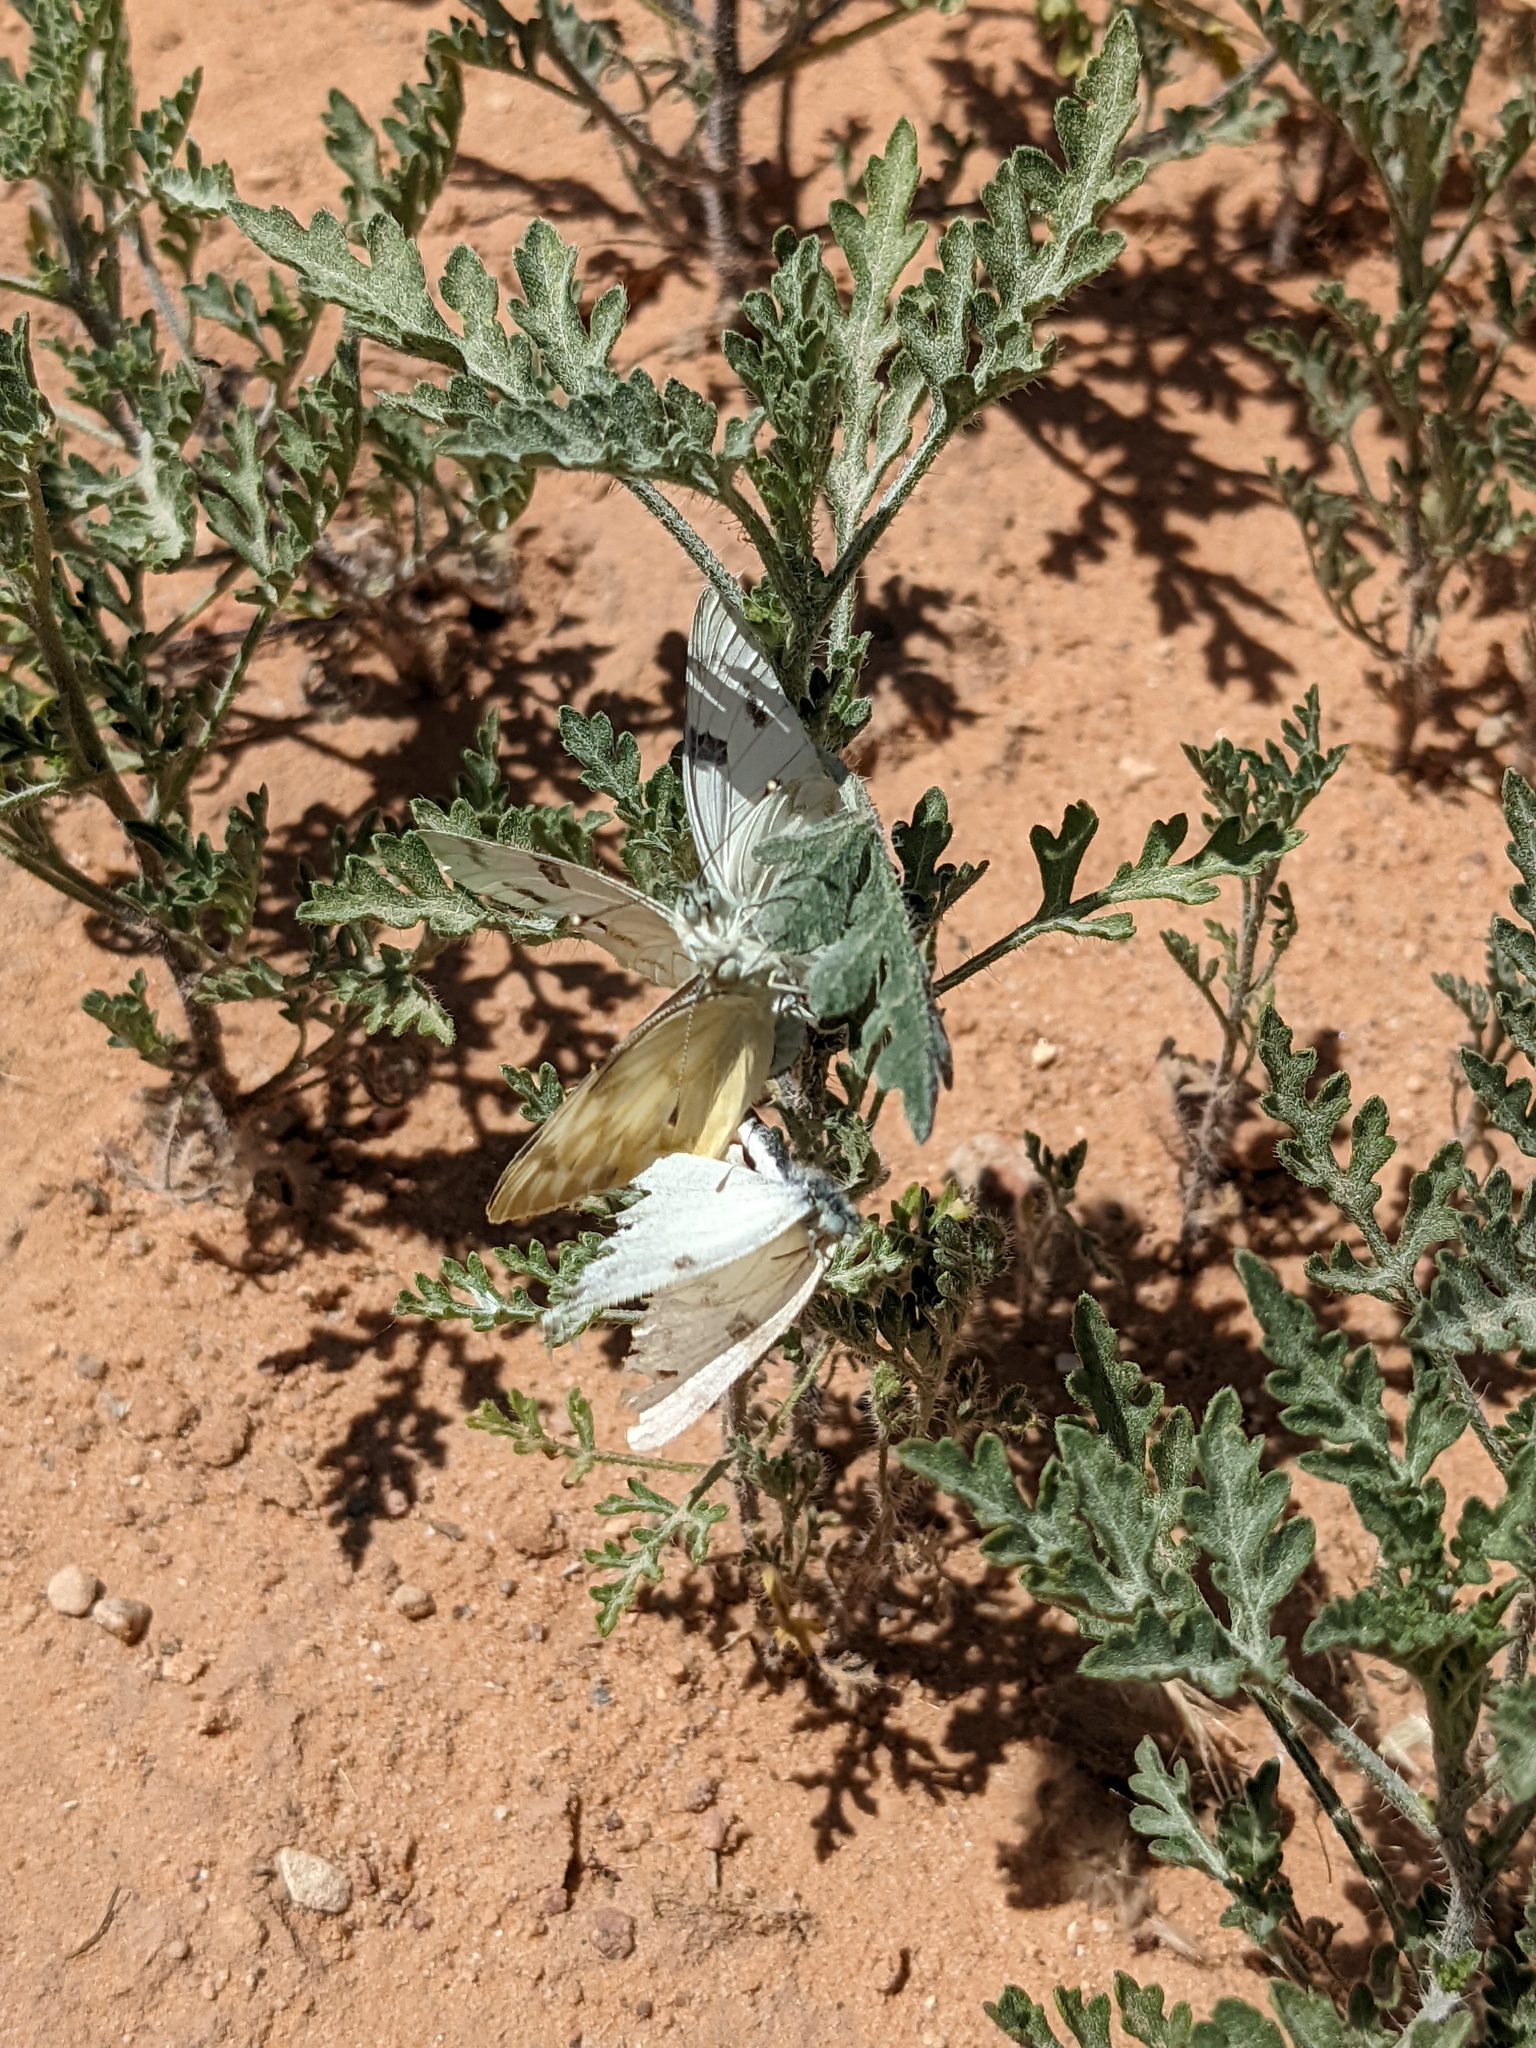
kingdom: Animalia
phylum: Arthropoda
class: Insecta
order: Lepidoptera
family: Pieridae
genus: Pontia
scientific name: Pontia protodice
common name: Checkered white
